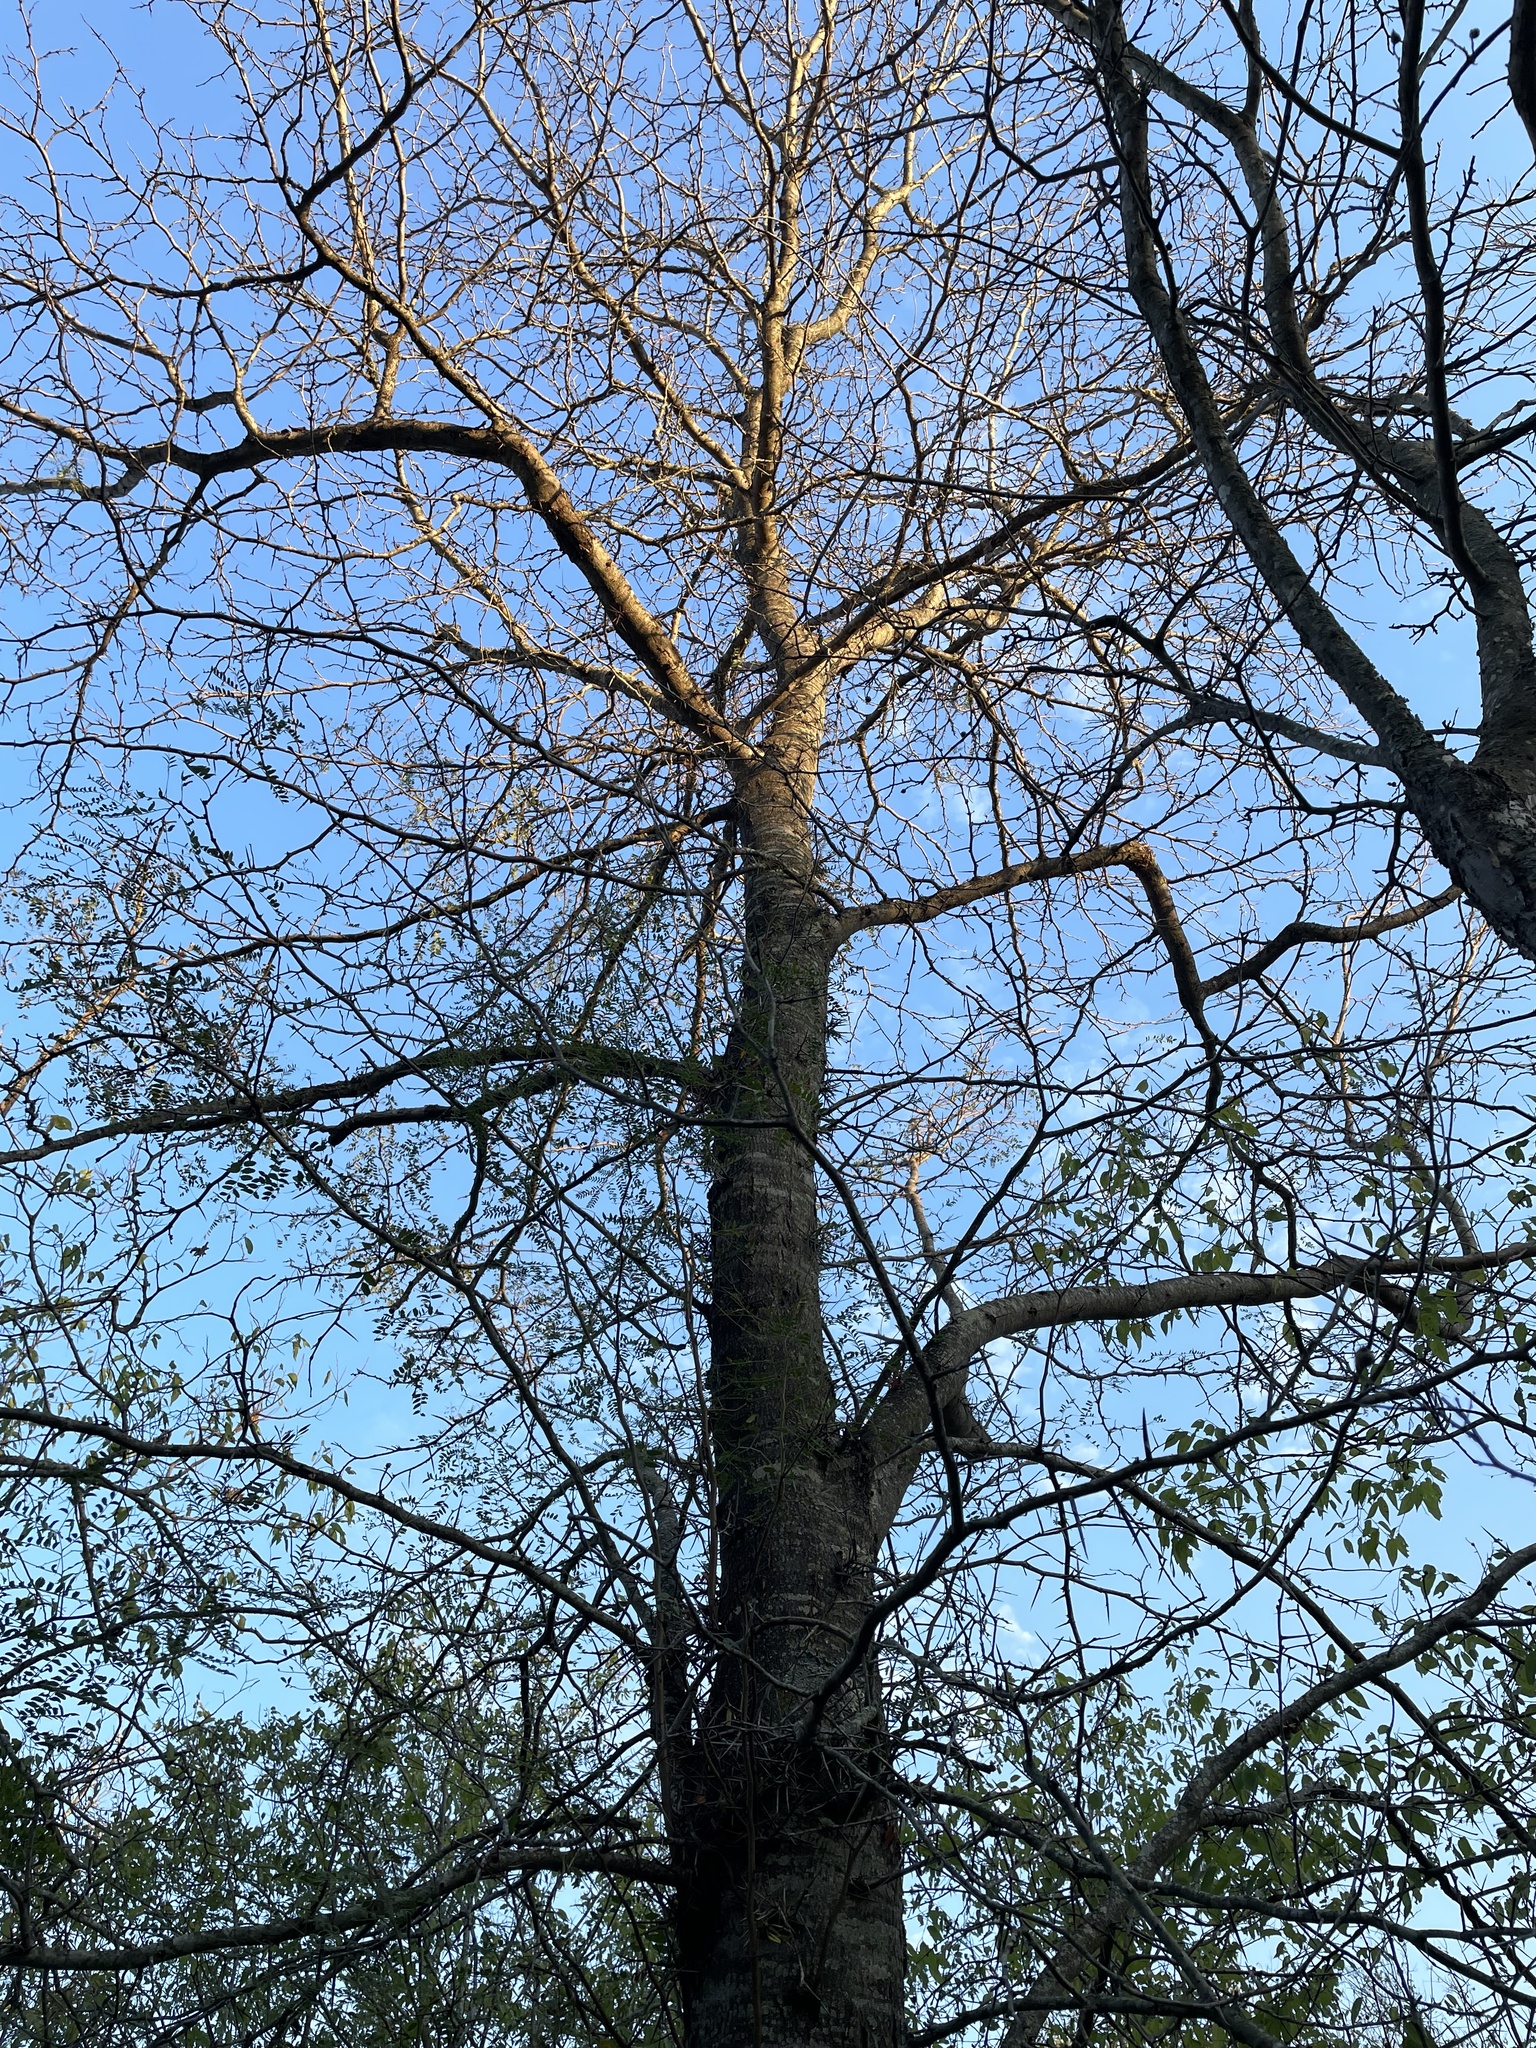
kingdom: Plantae
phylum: Tracheophyta
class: Magnoliopsida
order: Fabales
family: Fabaceae
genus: Gleditsia
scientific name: Gleditsia triacanthos
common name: Common honeylocust
